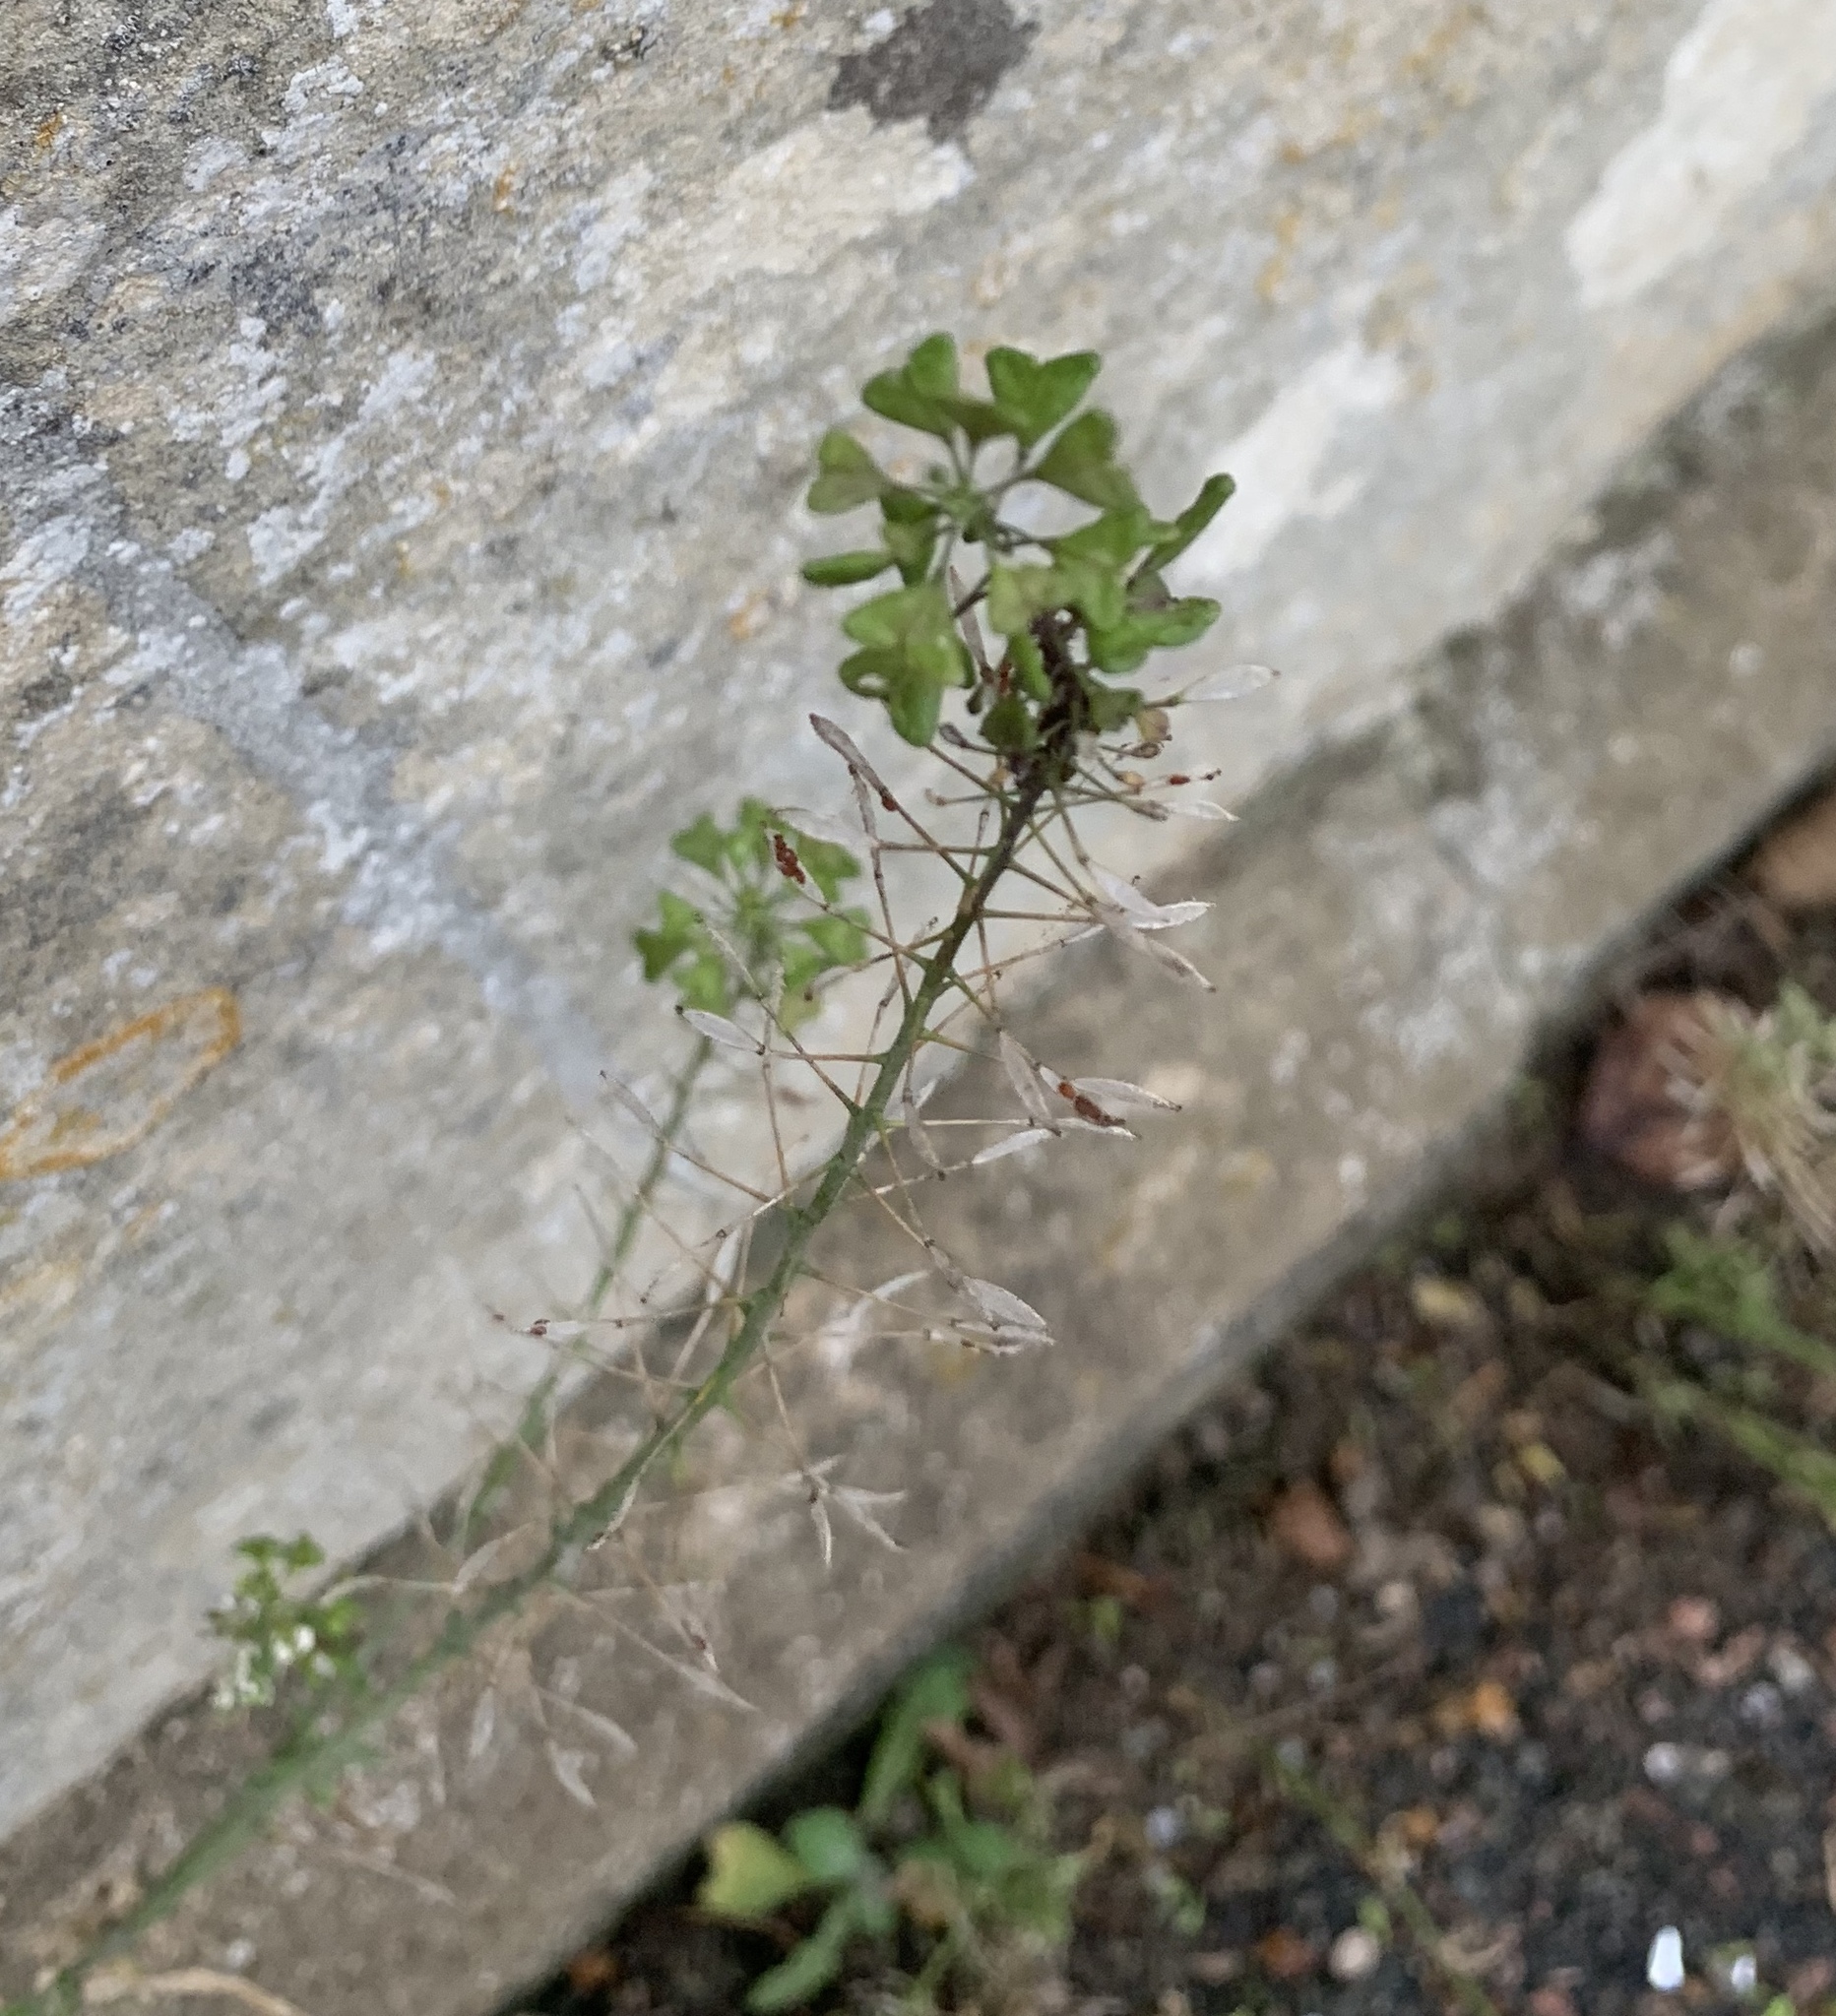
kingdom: Plantae
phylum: Tracheophyta
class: Magnoliopsida
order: Brassicales
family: Brassicaceae
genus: Capsella
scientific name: Capsella bursa-pastoris
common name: Shepherd's purse
